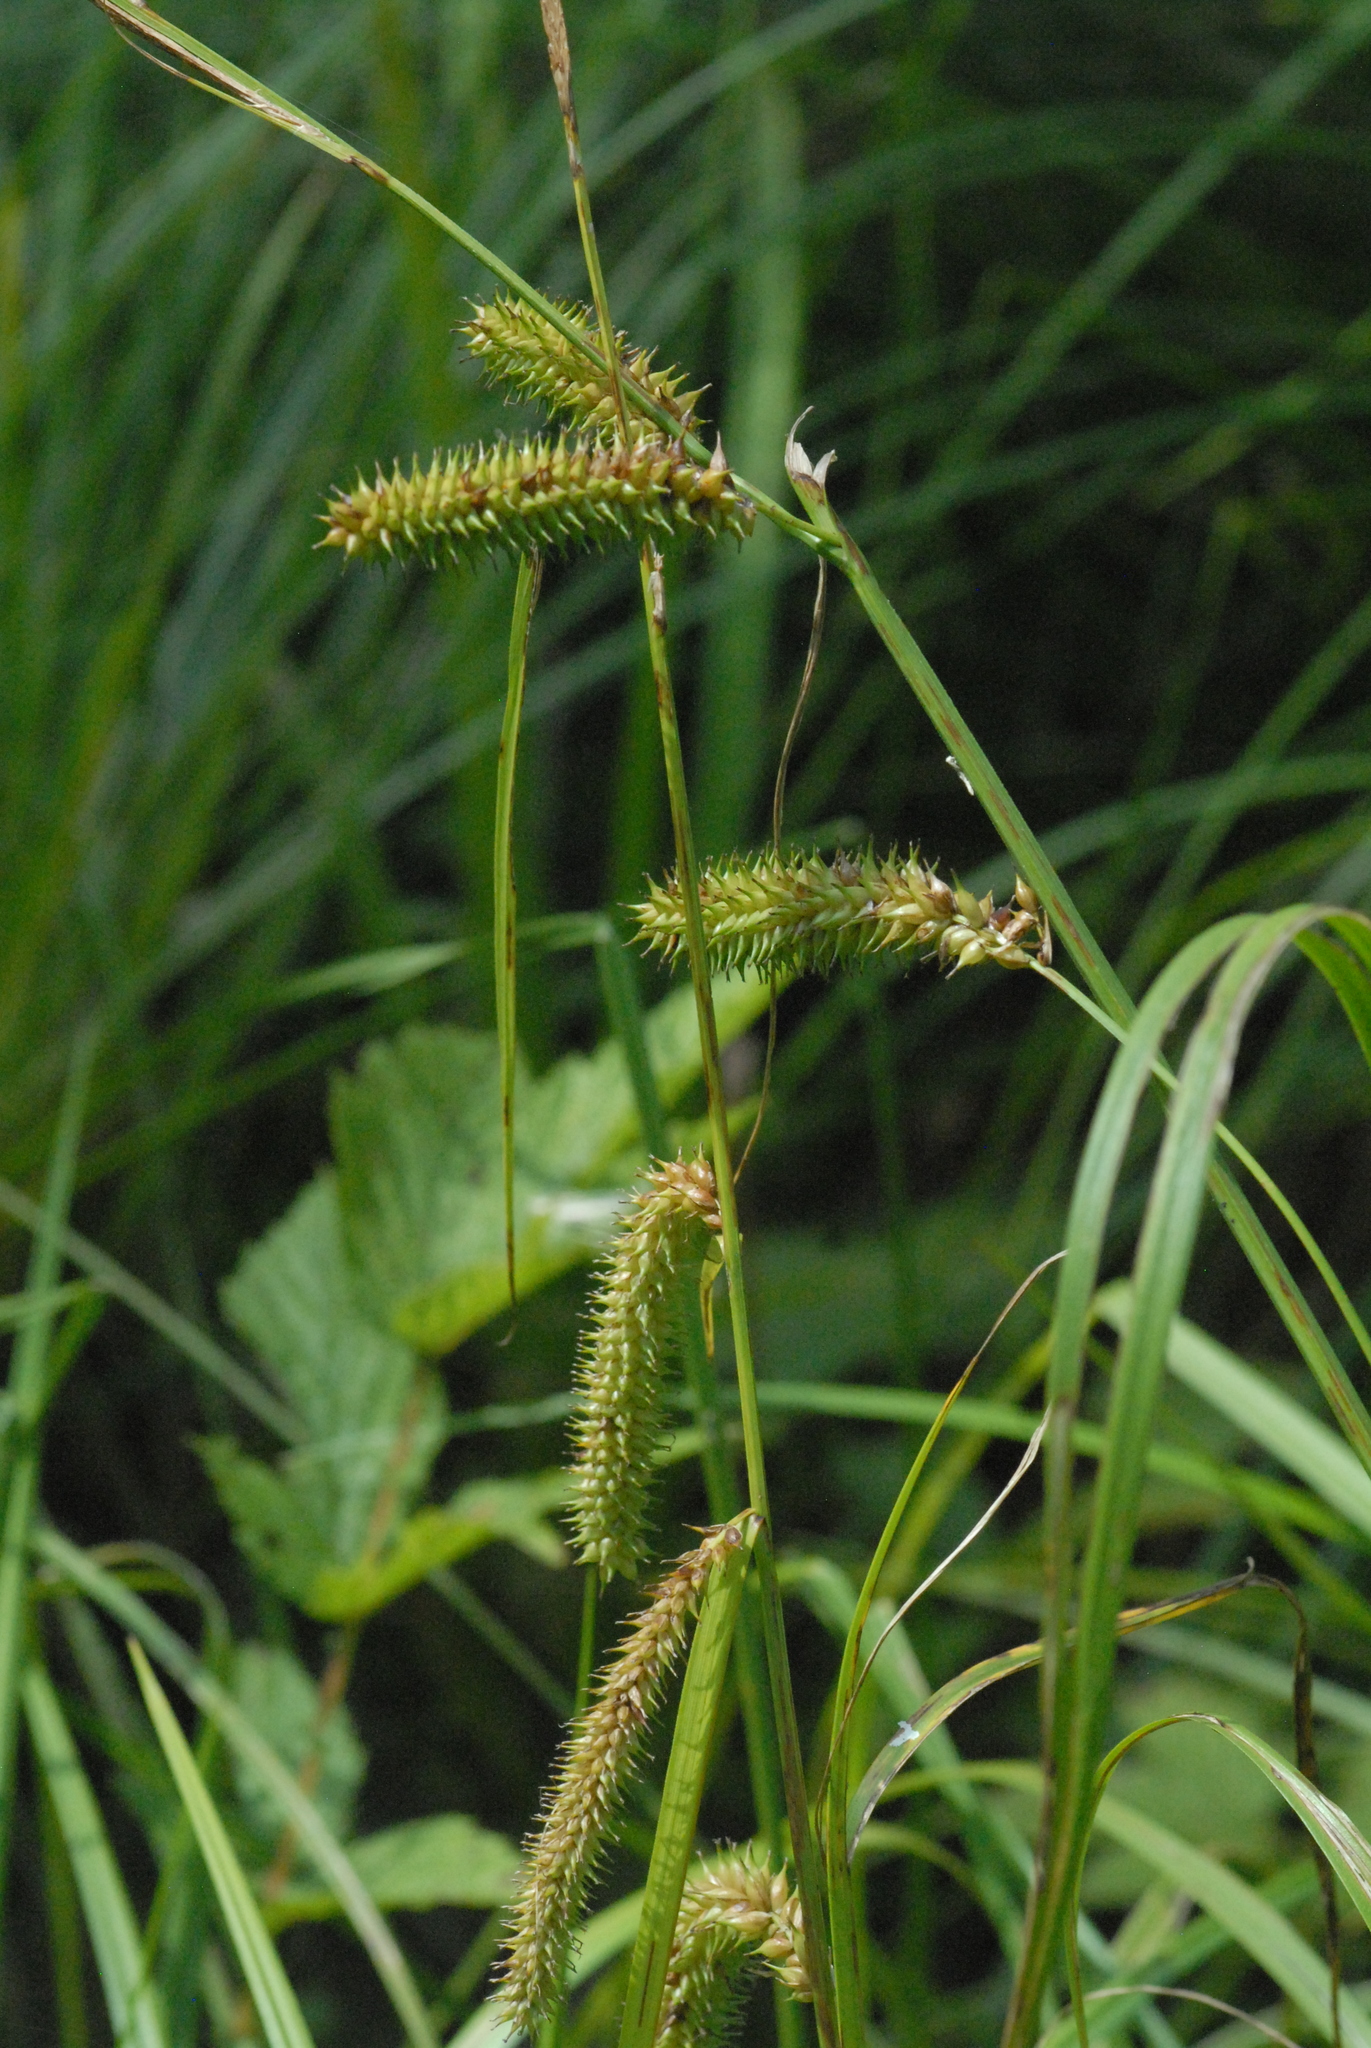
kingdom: Plantae
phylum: Tracheophyta
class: Liliopsida
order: Poales
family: Cyperaceae
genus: Carex
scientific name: Carex pseudocyperus
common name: Cyperus sedge
